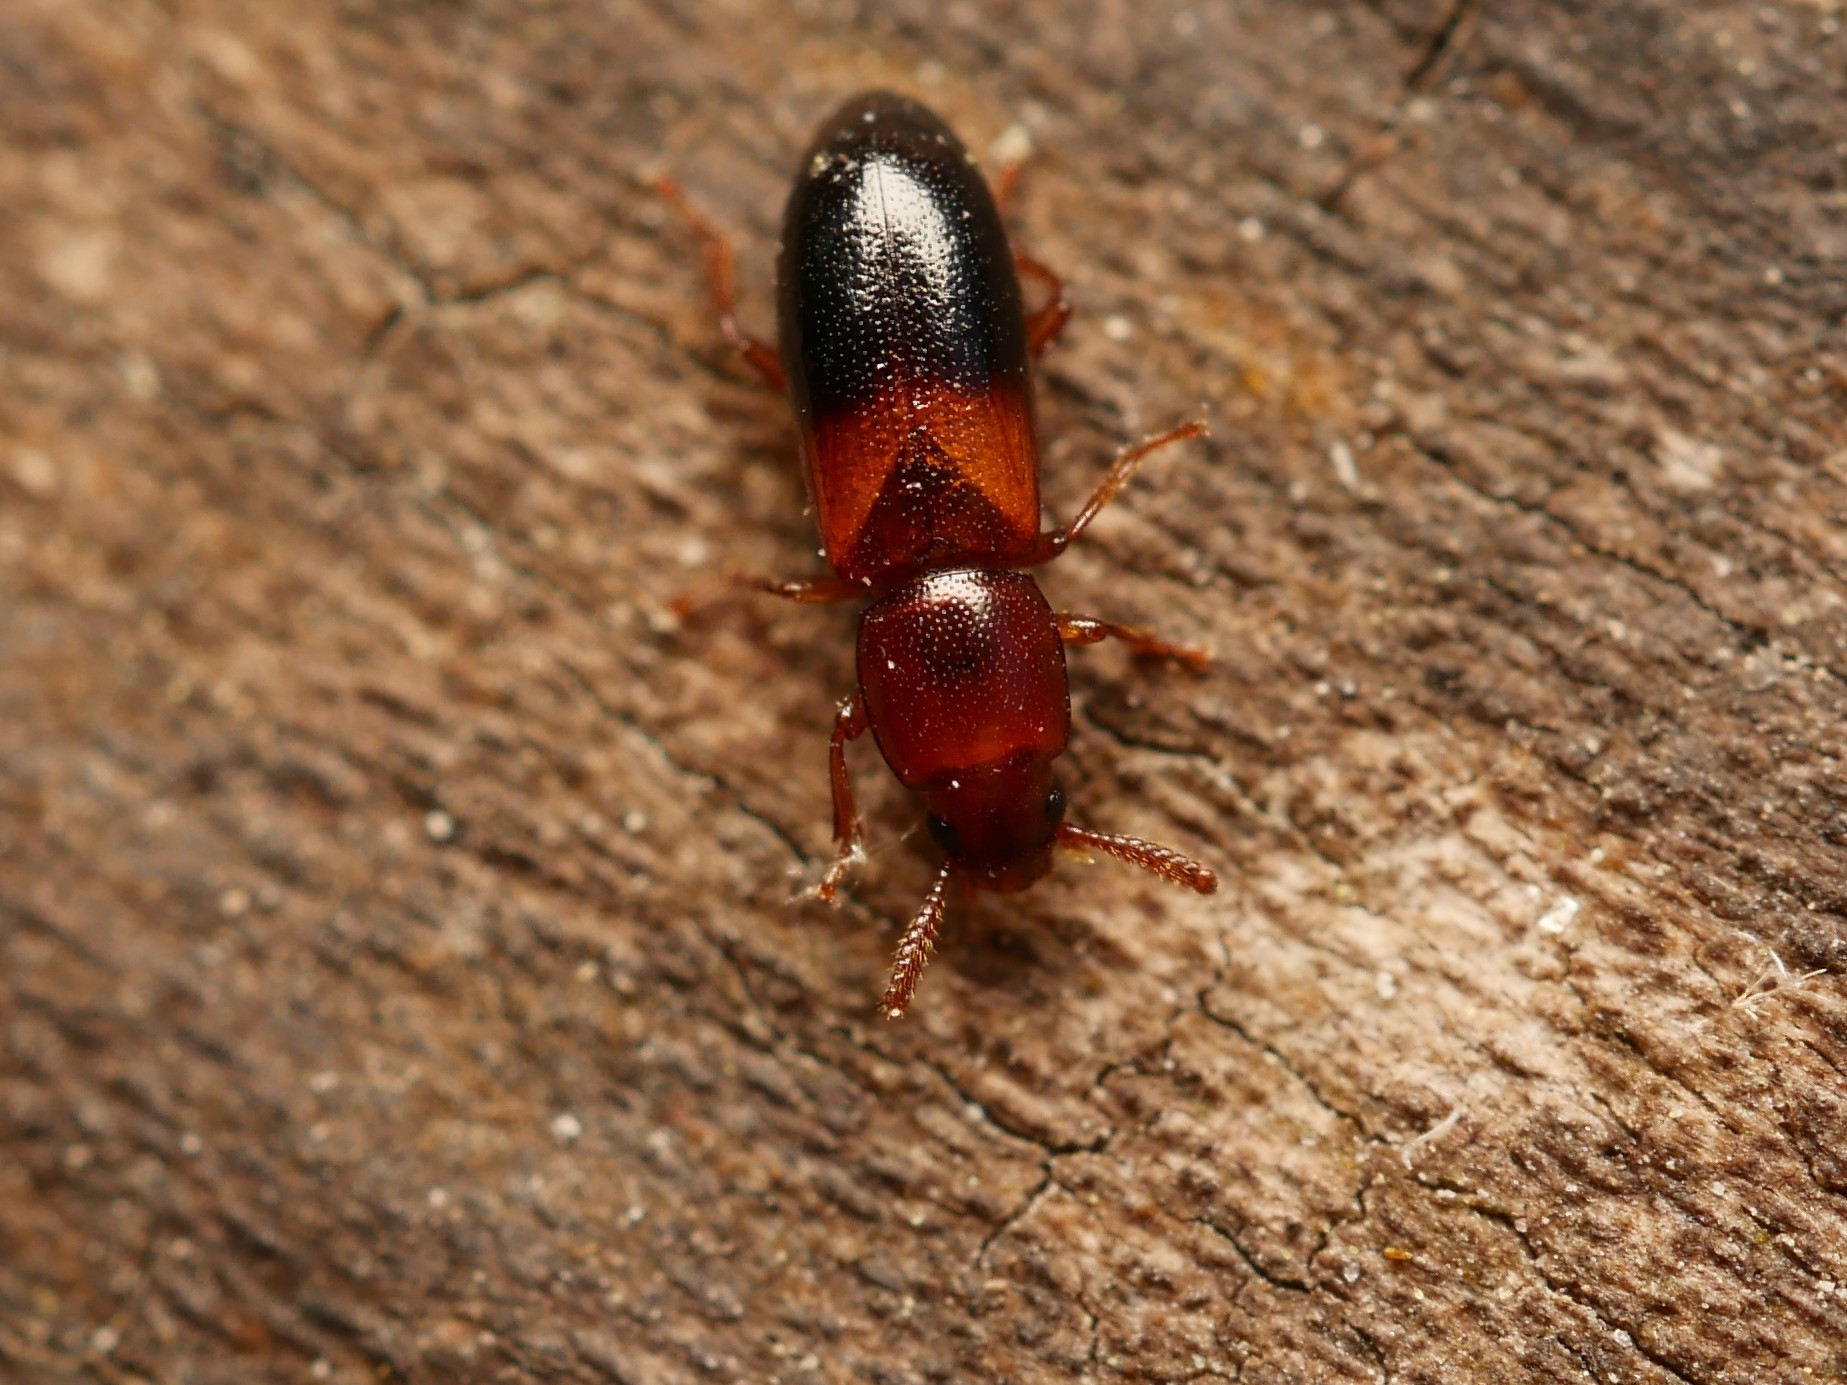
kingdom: Animalia
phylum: Arthropoda
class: Insecta
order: Coleoptera
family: Tenebrionidae
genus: Corticeus
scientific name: Corticeus bicolor
